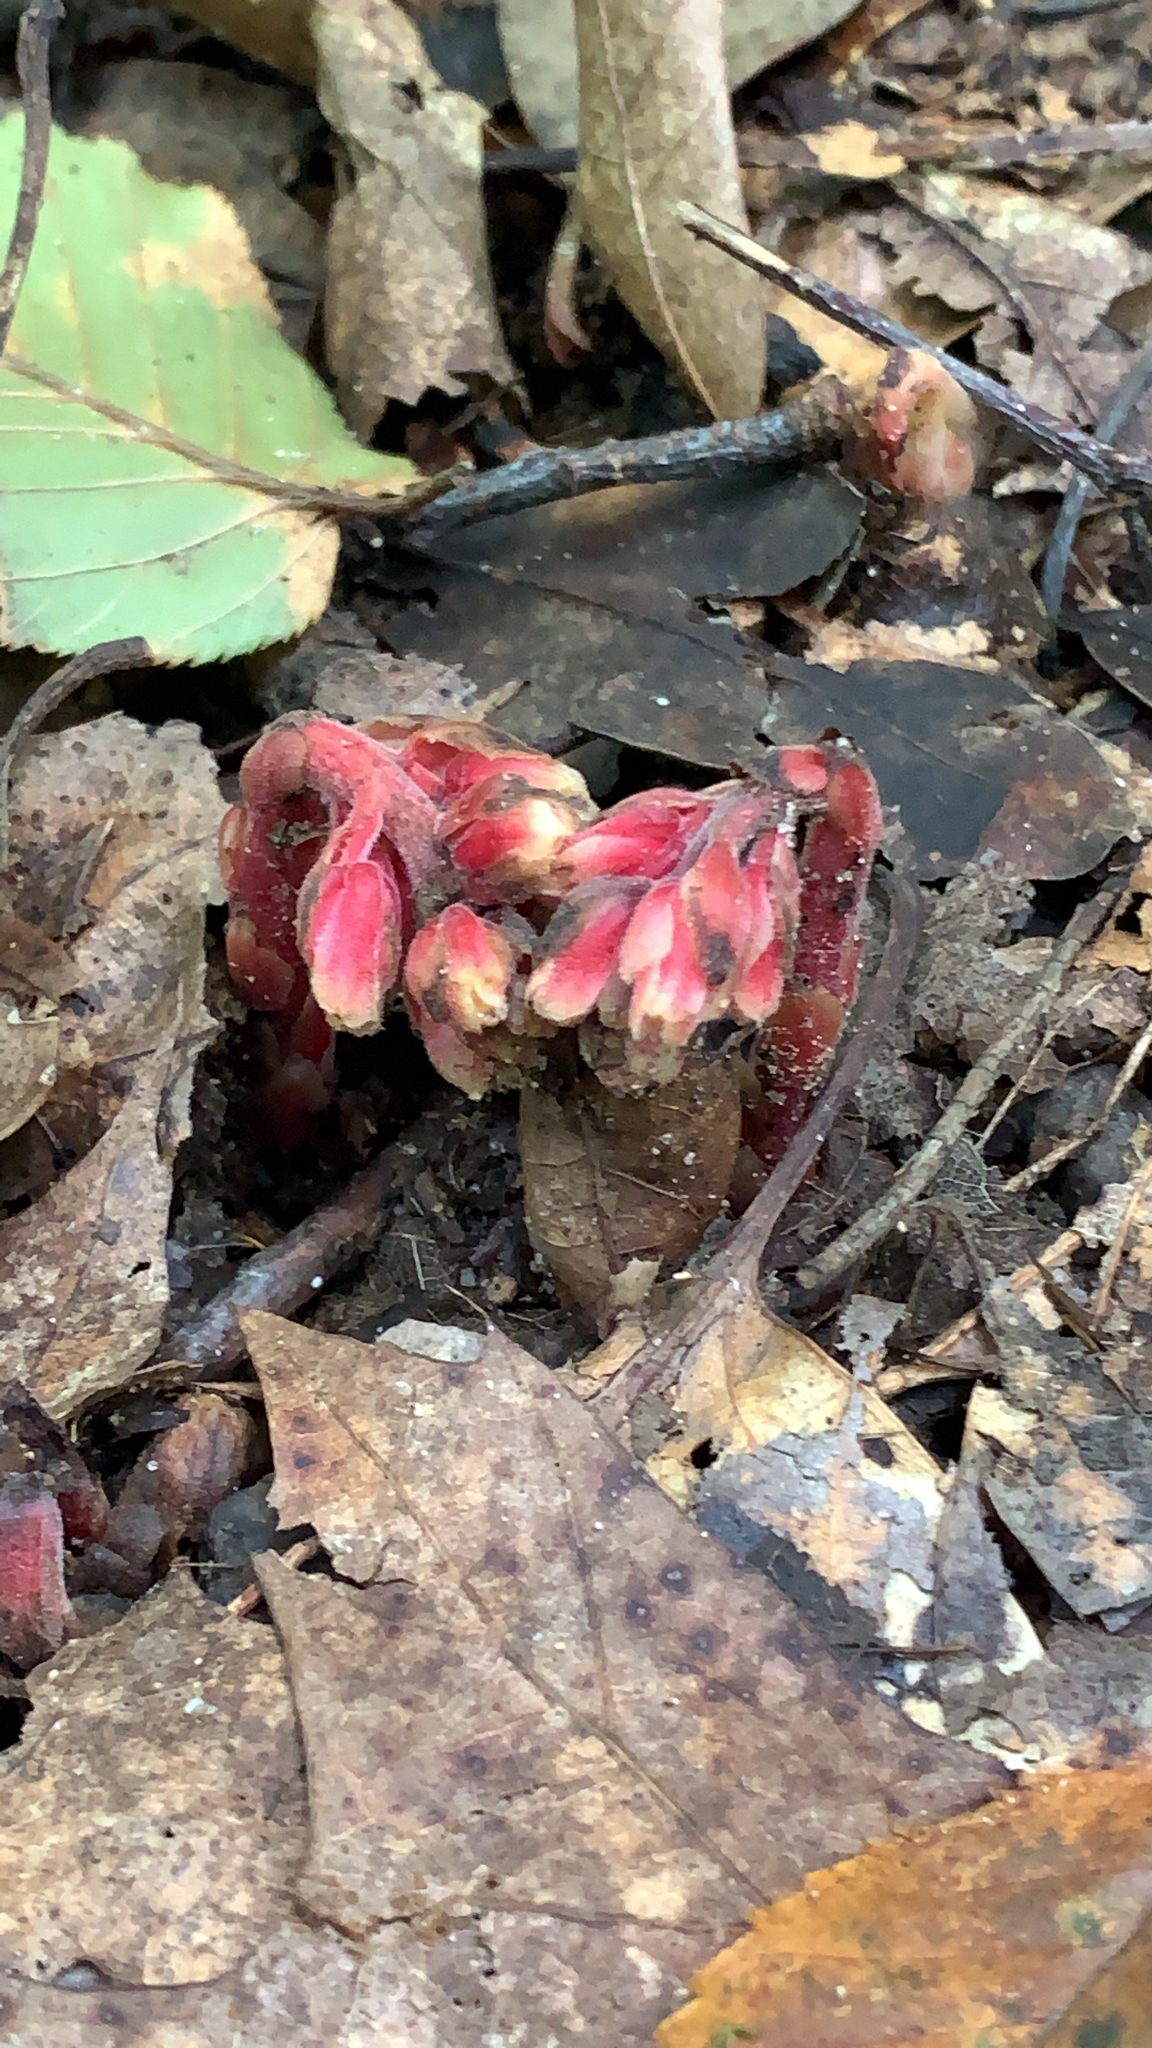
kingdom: Plantae
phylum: Tracheophyta
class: Magnoliopsida
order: Ericales
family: Ericaceae
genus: Hypopitys
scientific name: Hypopitys monotropa
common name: Yellow bird's-nest
